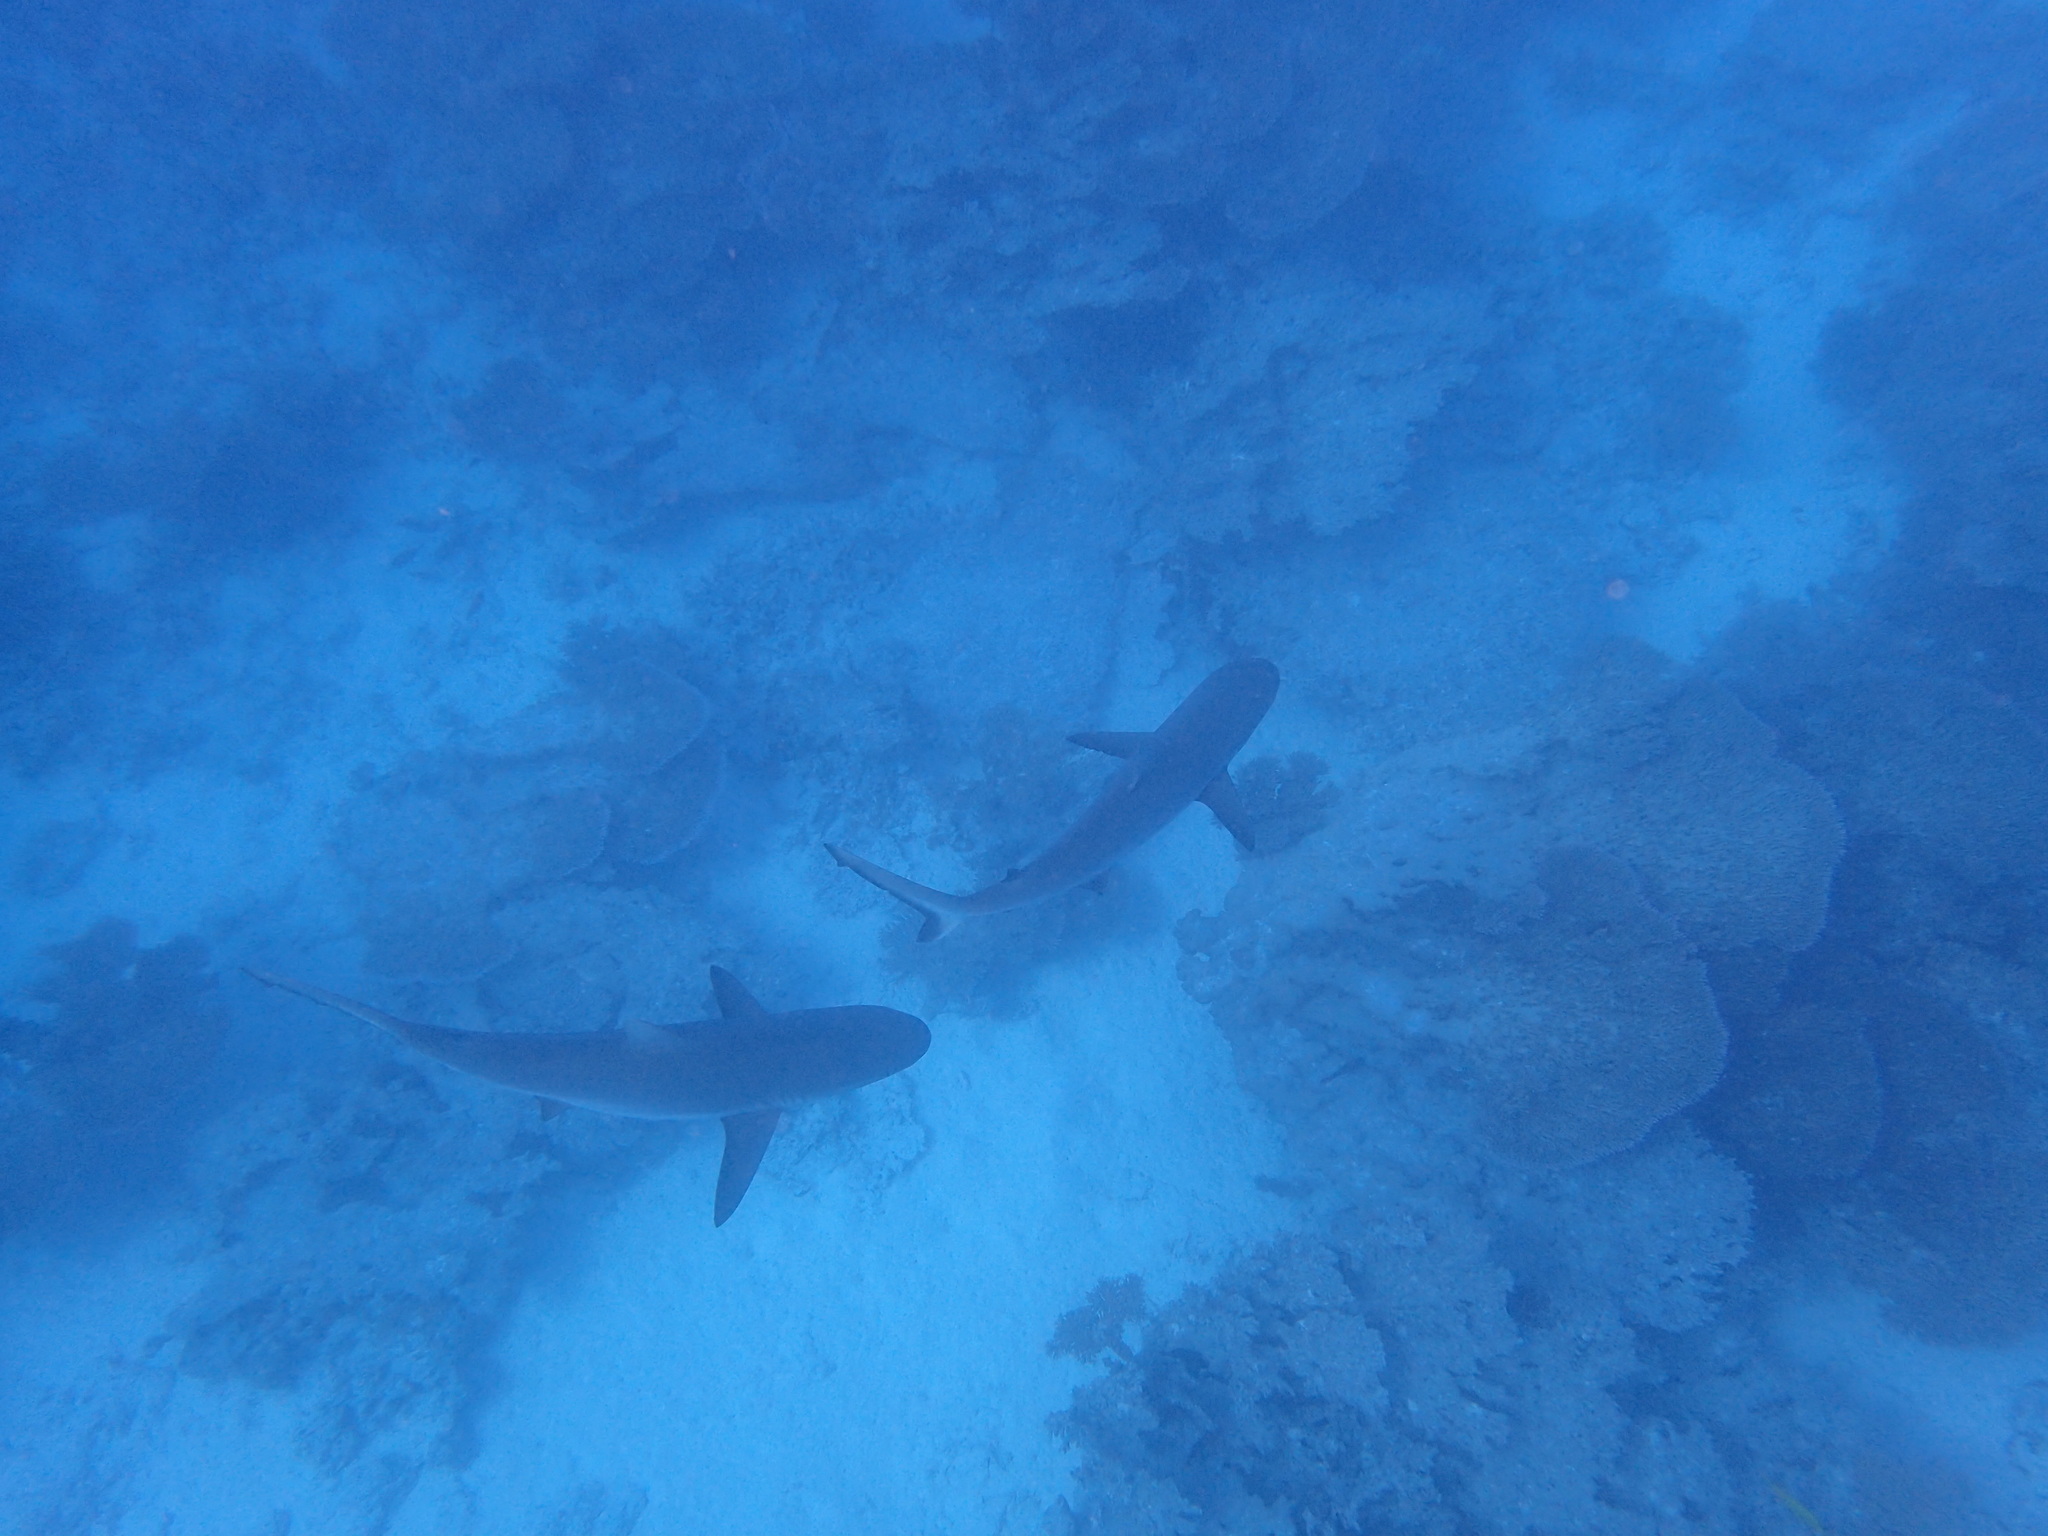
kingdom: Animalia
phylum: Chordata
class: Elasmobranchii
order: Carcharhiniformes
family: Carcharhinidae
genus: Carcharhinus
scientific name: Carcharhinus amblyrhynchos
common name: Grey reef shark
